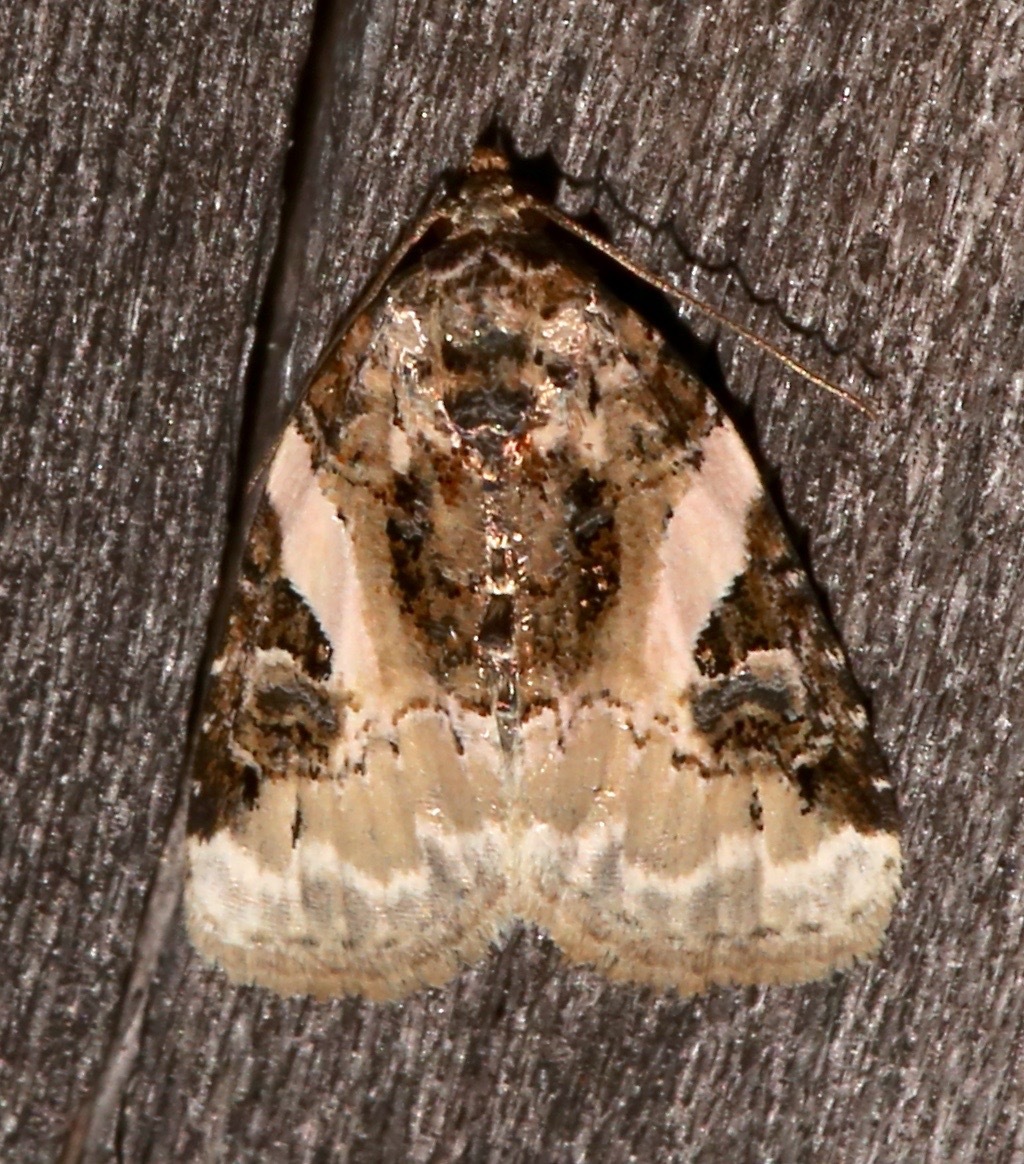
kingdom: Animalia
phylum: Arthropoda
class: Insecta
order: Lepidoptera
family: Noctuidae
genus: Pseudeustrotia
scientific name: Pseudeustrotia carneola
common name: Pink-barred lithacodia moth
